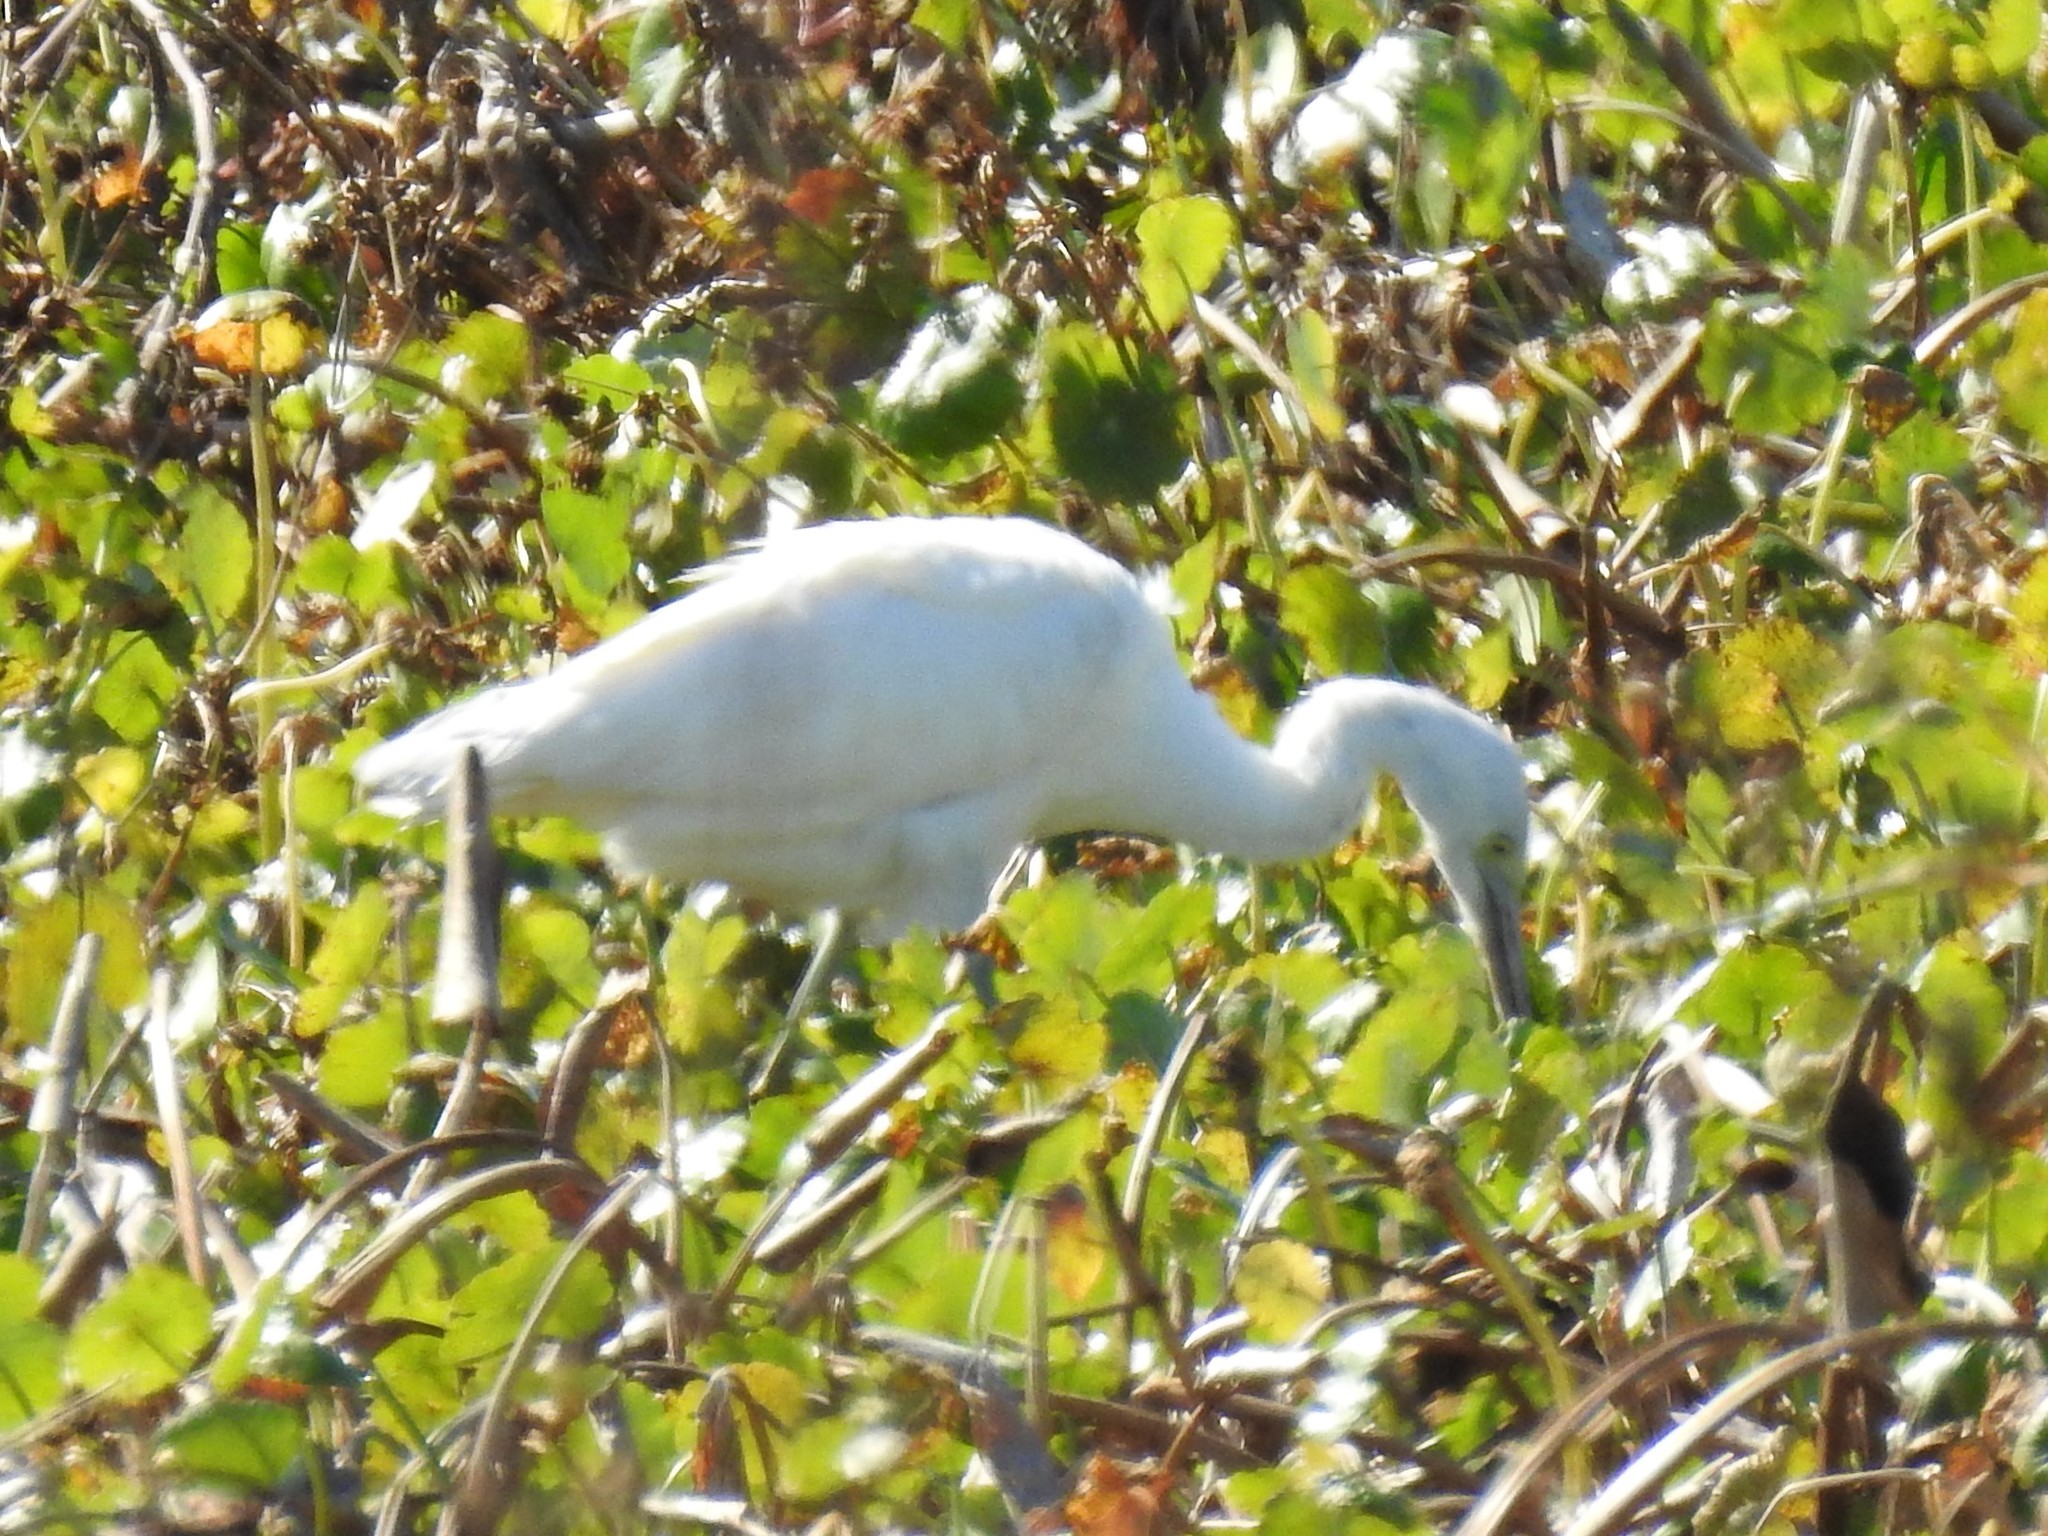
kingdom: Animalia
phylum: Chordata
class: Aves
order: Pelecaniformes
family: Ardeidae
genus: Egretta
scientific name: Egretta caerulea
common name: Little blue heron
